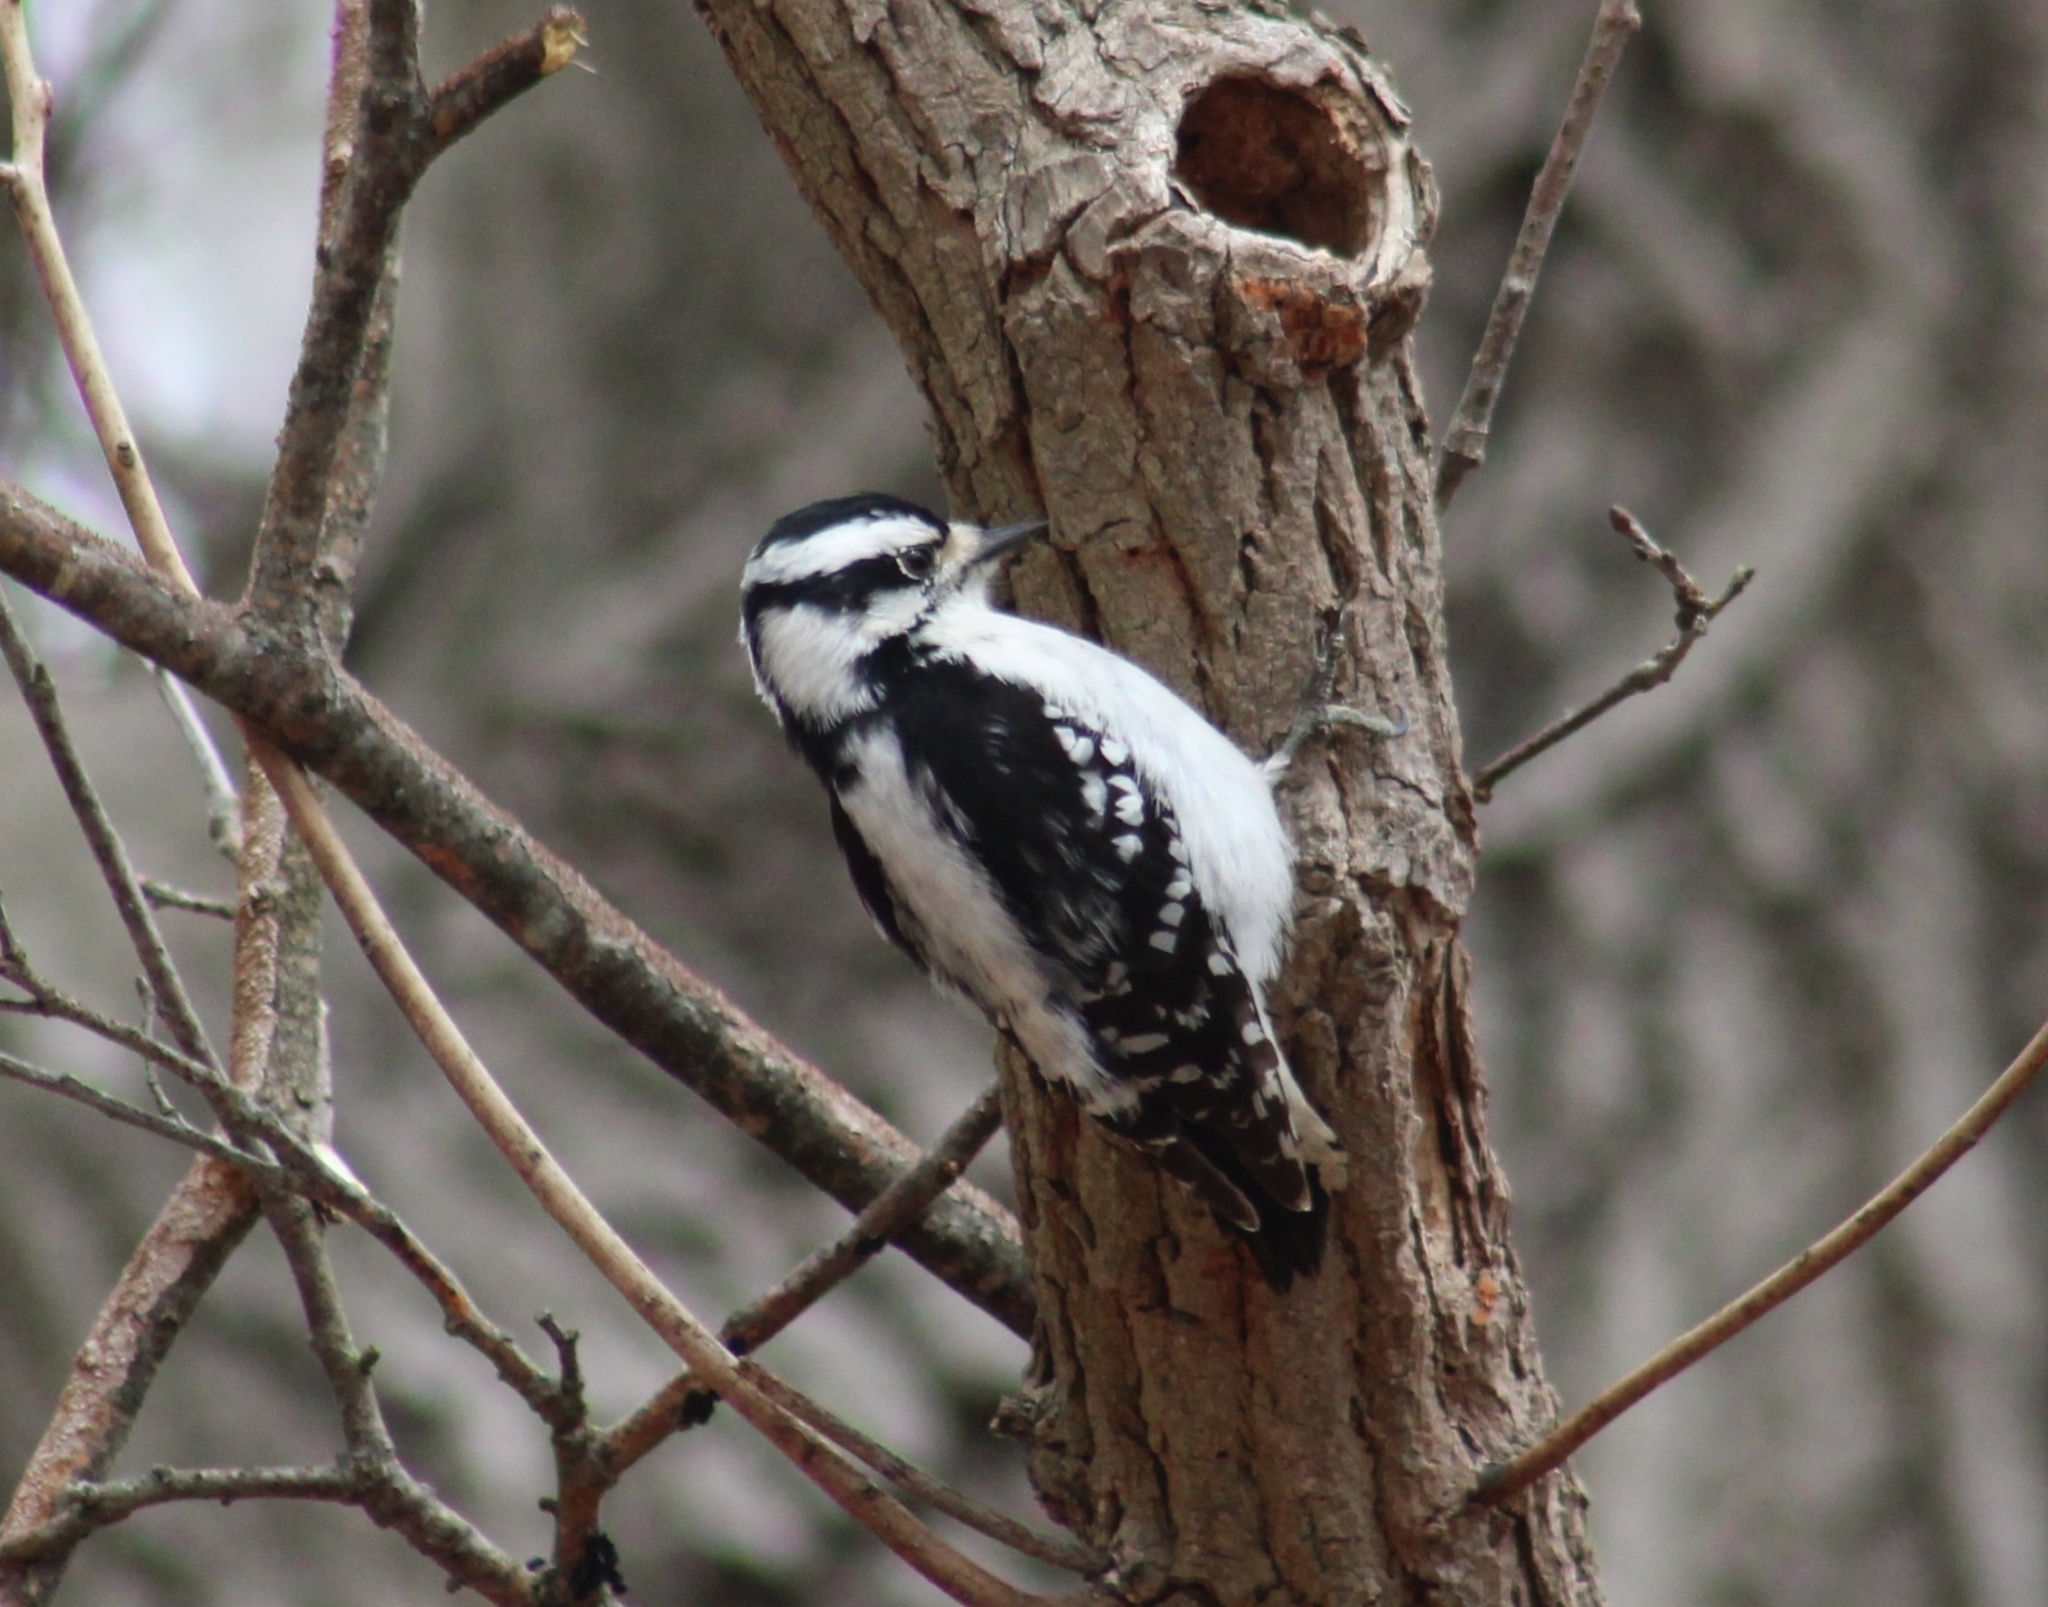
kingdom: Animalia
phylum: Chordata
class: Aves
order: Piciformes
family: Picidae
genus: Dryobates
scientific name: Dryobates pubescens
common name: Downy woodpecker
